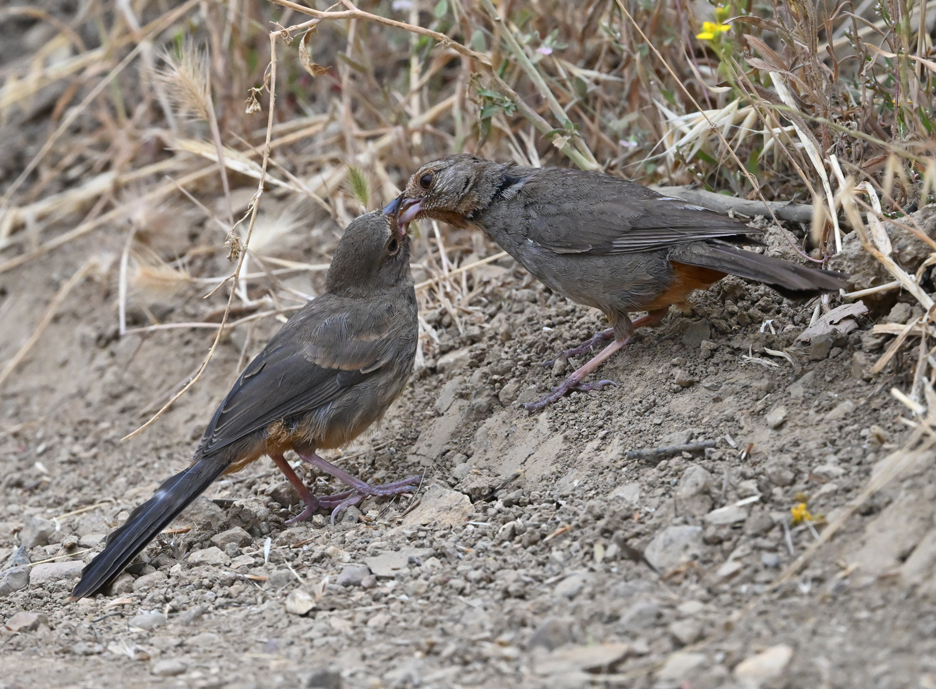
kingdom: Animalia
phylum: Chordata
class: Aves
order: Passeriformes
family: Passerellidae
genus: Melozone
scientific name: Melozone crissalis
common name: California towhee
